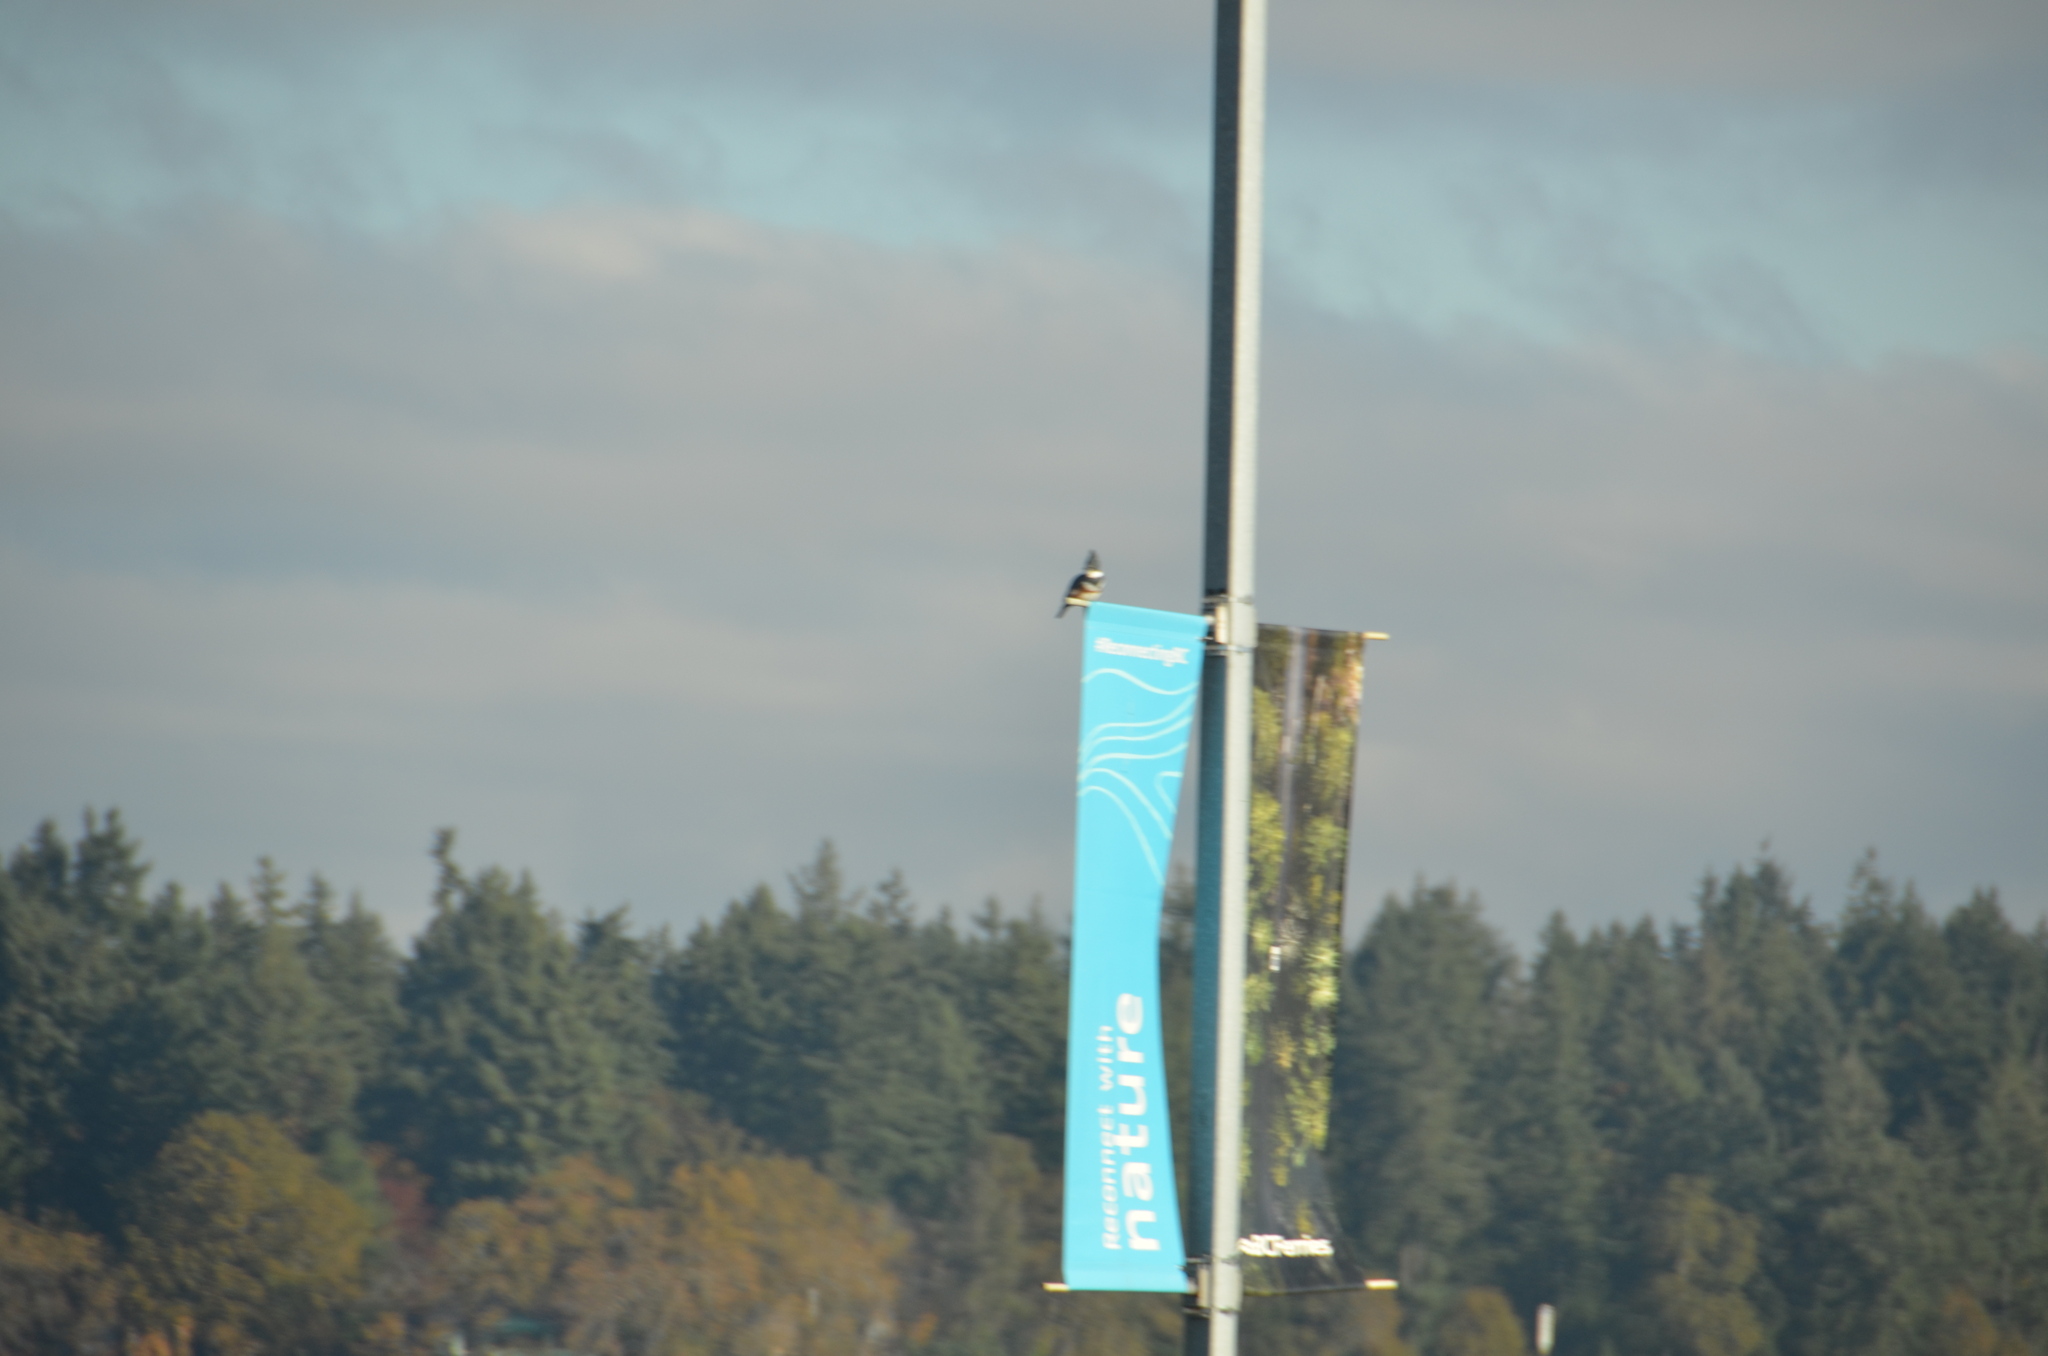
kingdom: Animalia
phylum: Chordata
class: Aves
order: Coraciiformes
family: Alcedinidae
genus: Megaceryle
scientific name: Megaceryle alcyon
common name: Belted kingfisher
